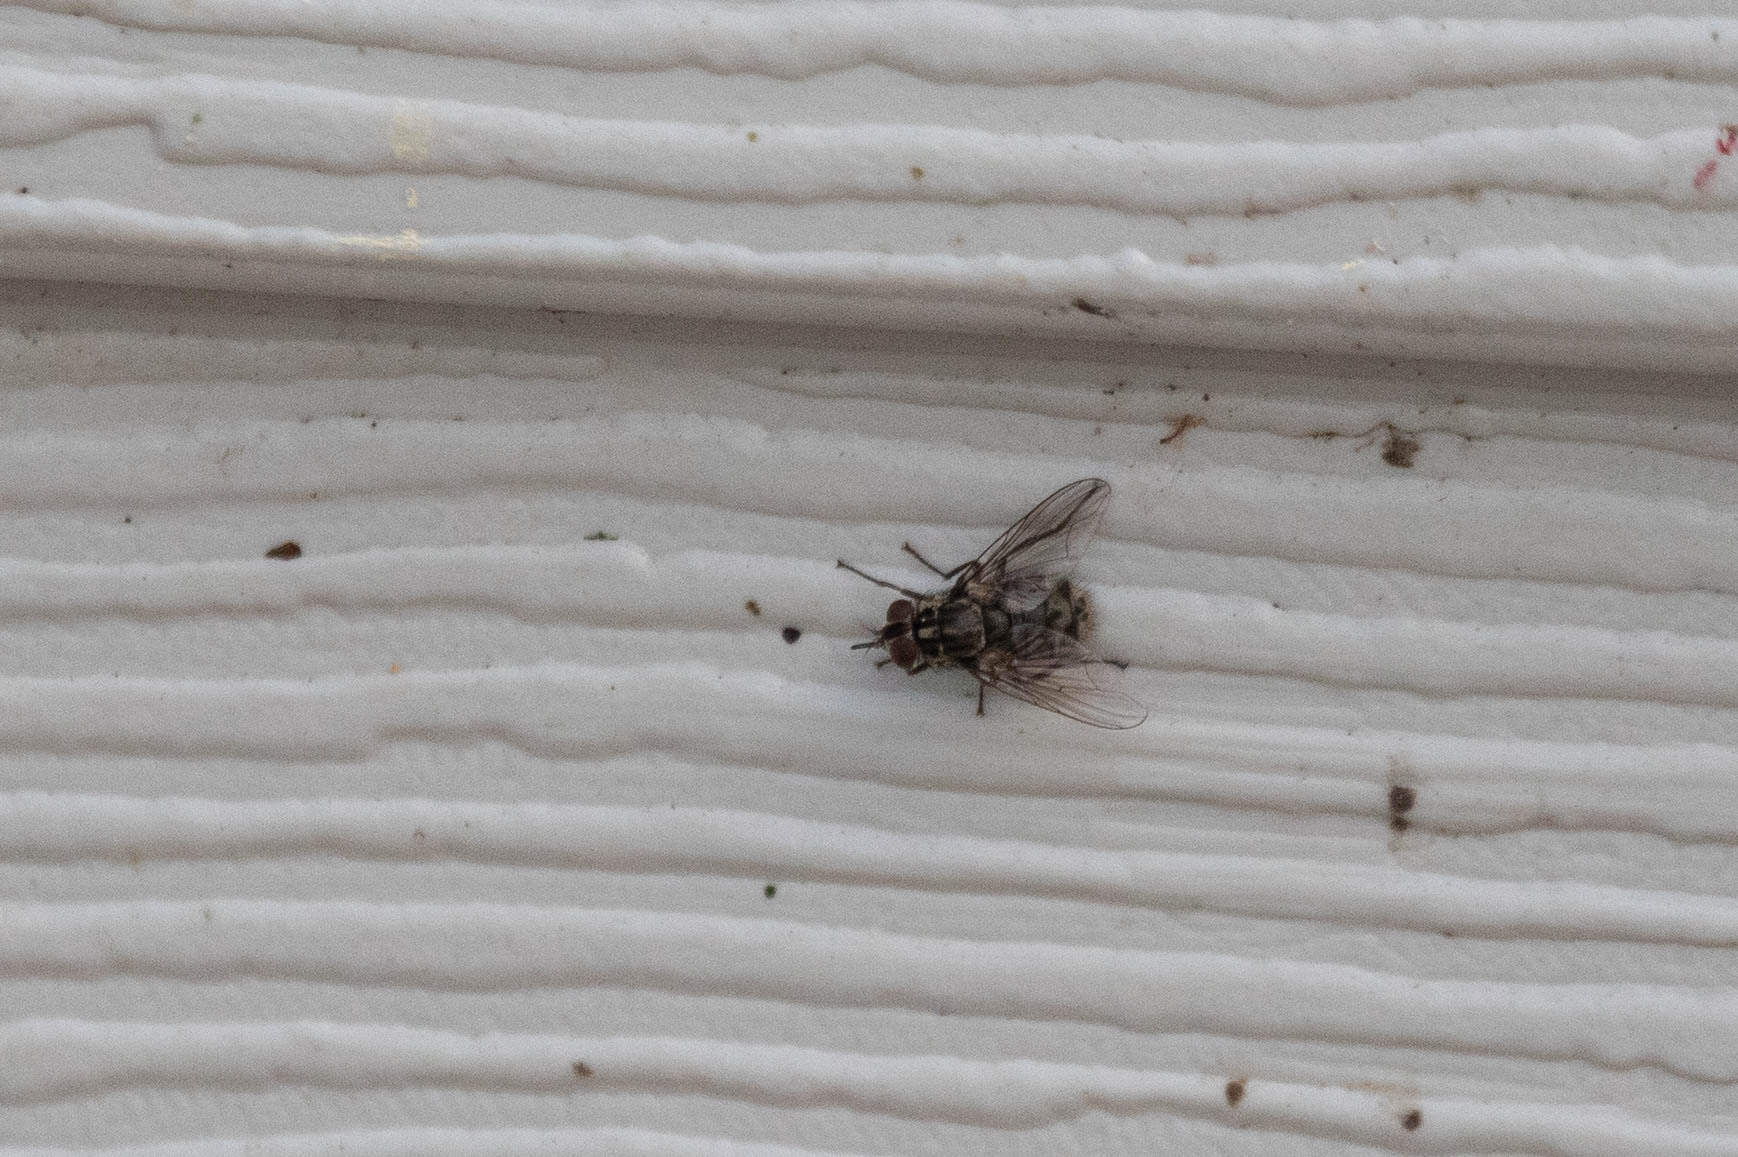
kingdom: Animalia
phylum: Arthropoda
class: Insecta
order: Diptera
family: Muscidae
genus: Stomoxys
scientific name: Stomoxys calcitrans
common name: Stable fly
